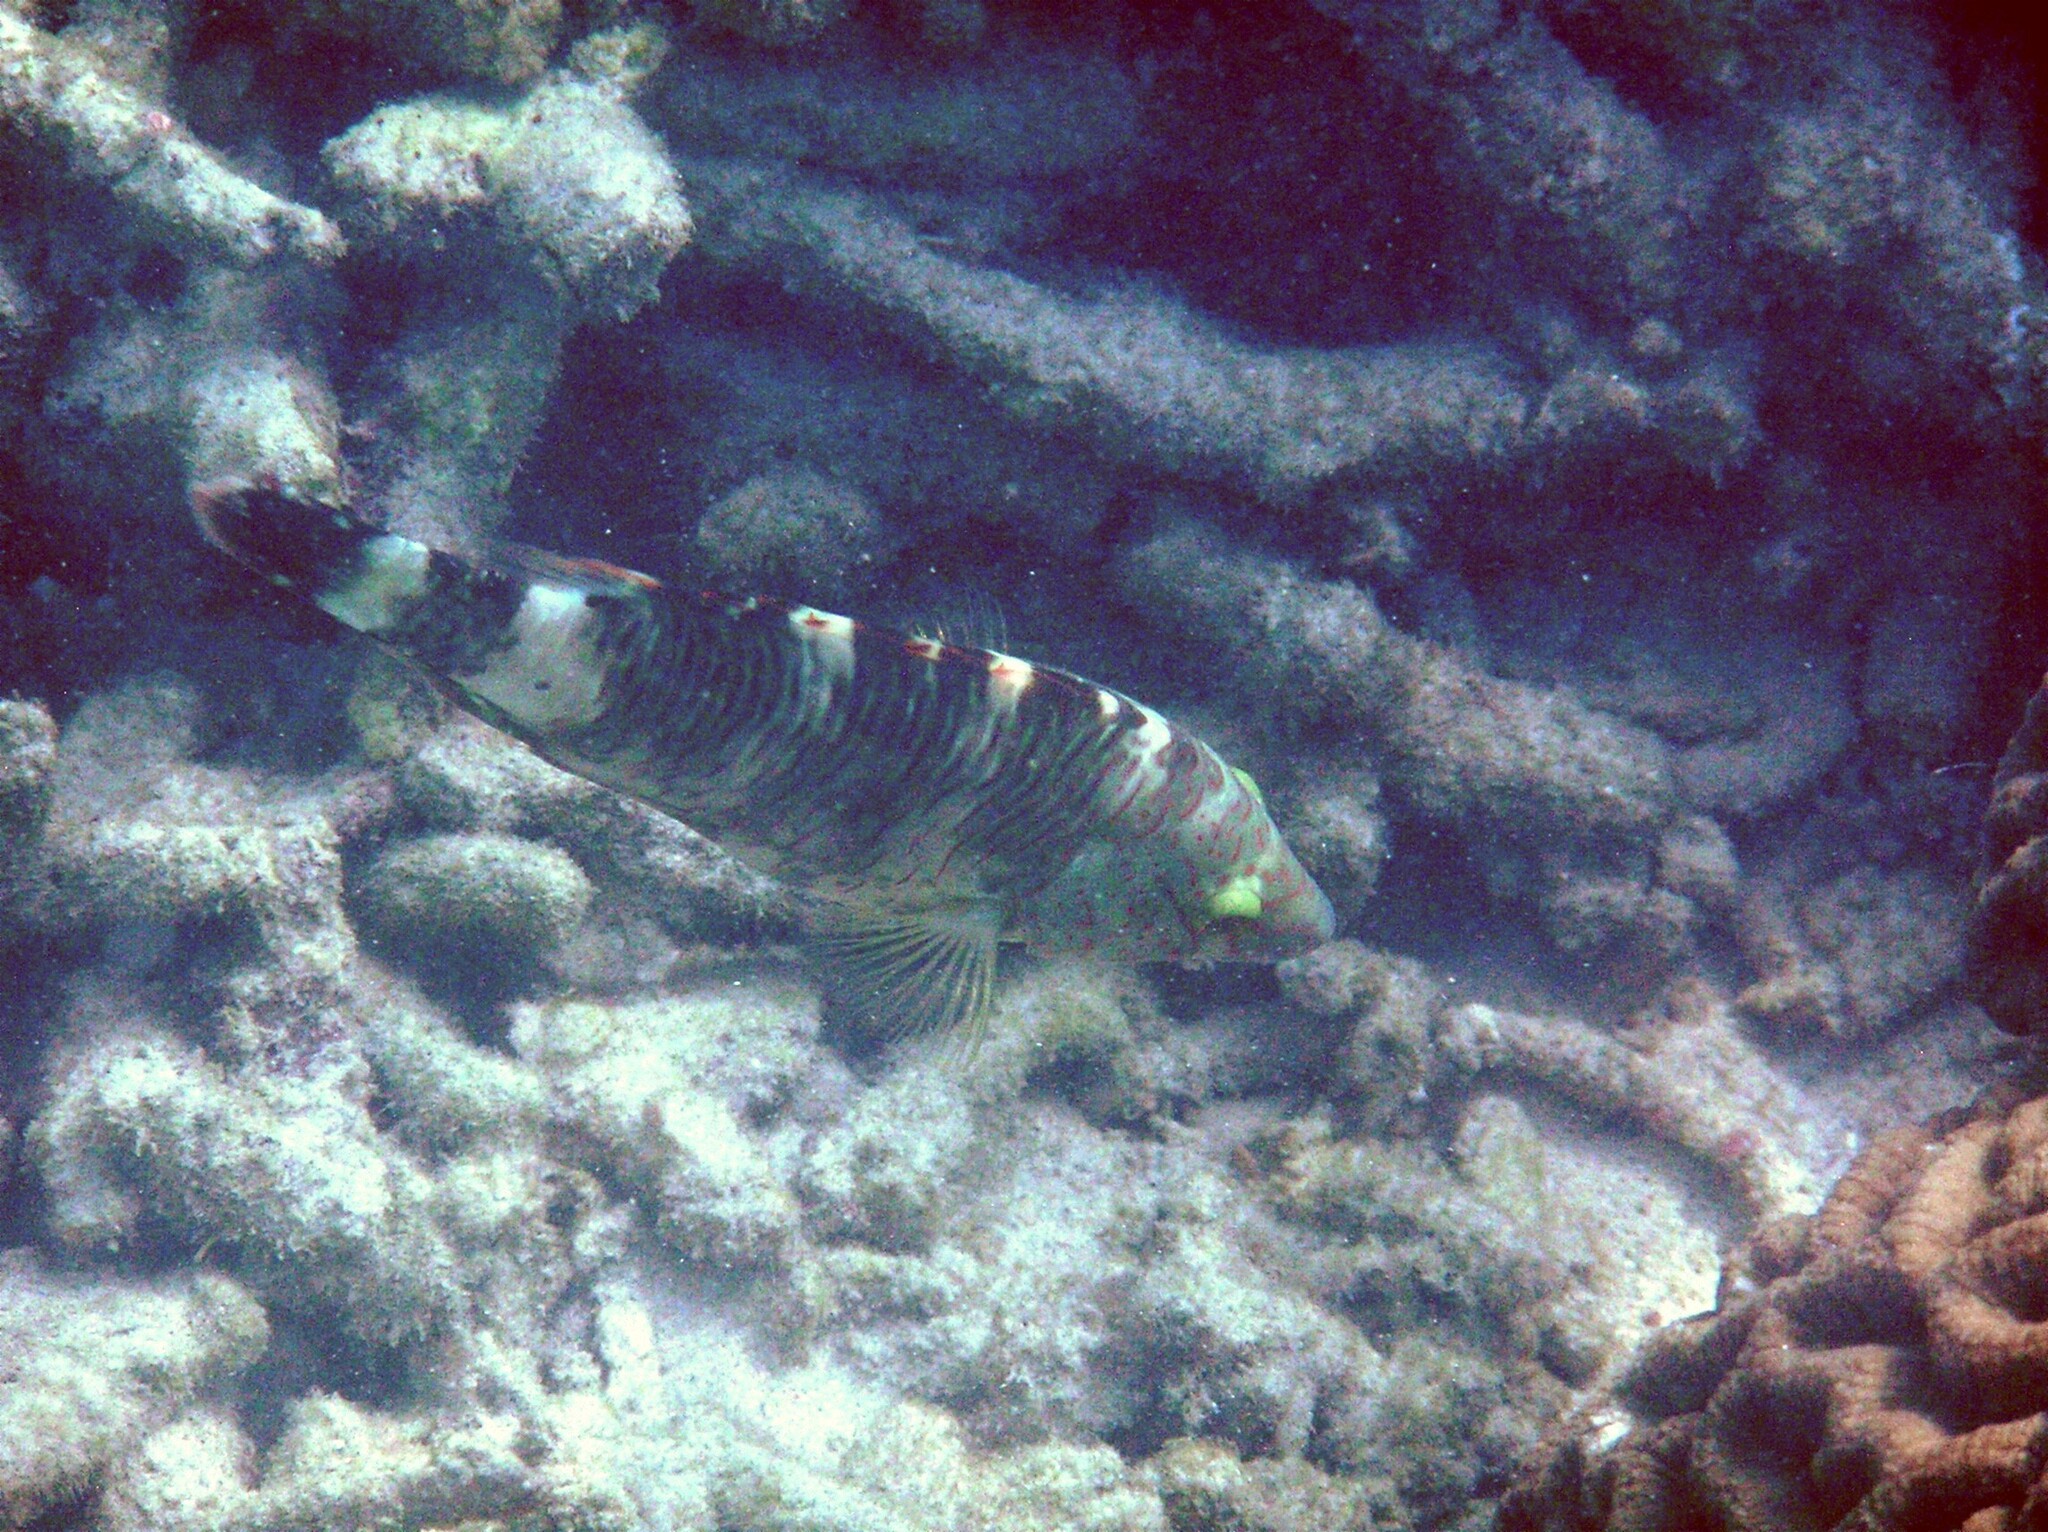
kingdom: Animalia
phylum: Chordata
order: Perciformes
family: Labridae
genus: Cheilinus
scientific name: Cheilinus trilobatus
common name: Tripletail maori wrasse
